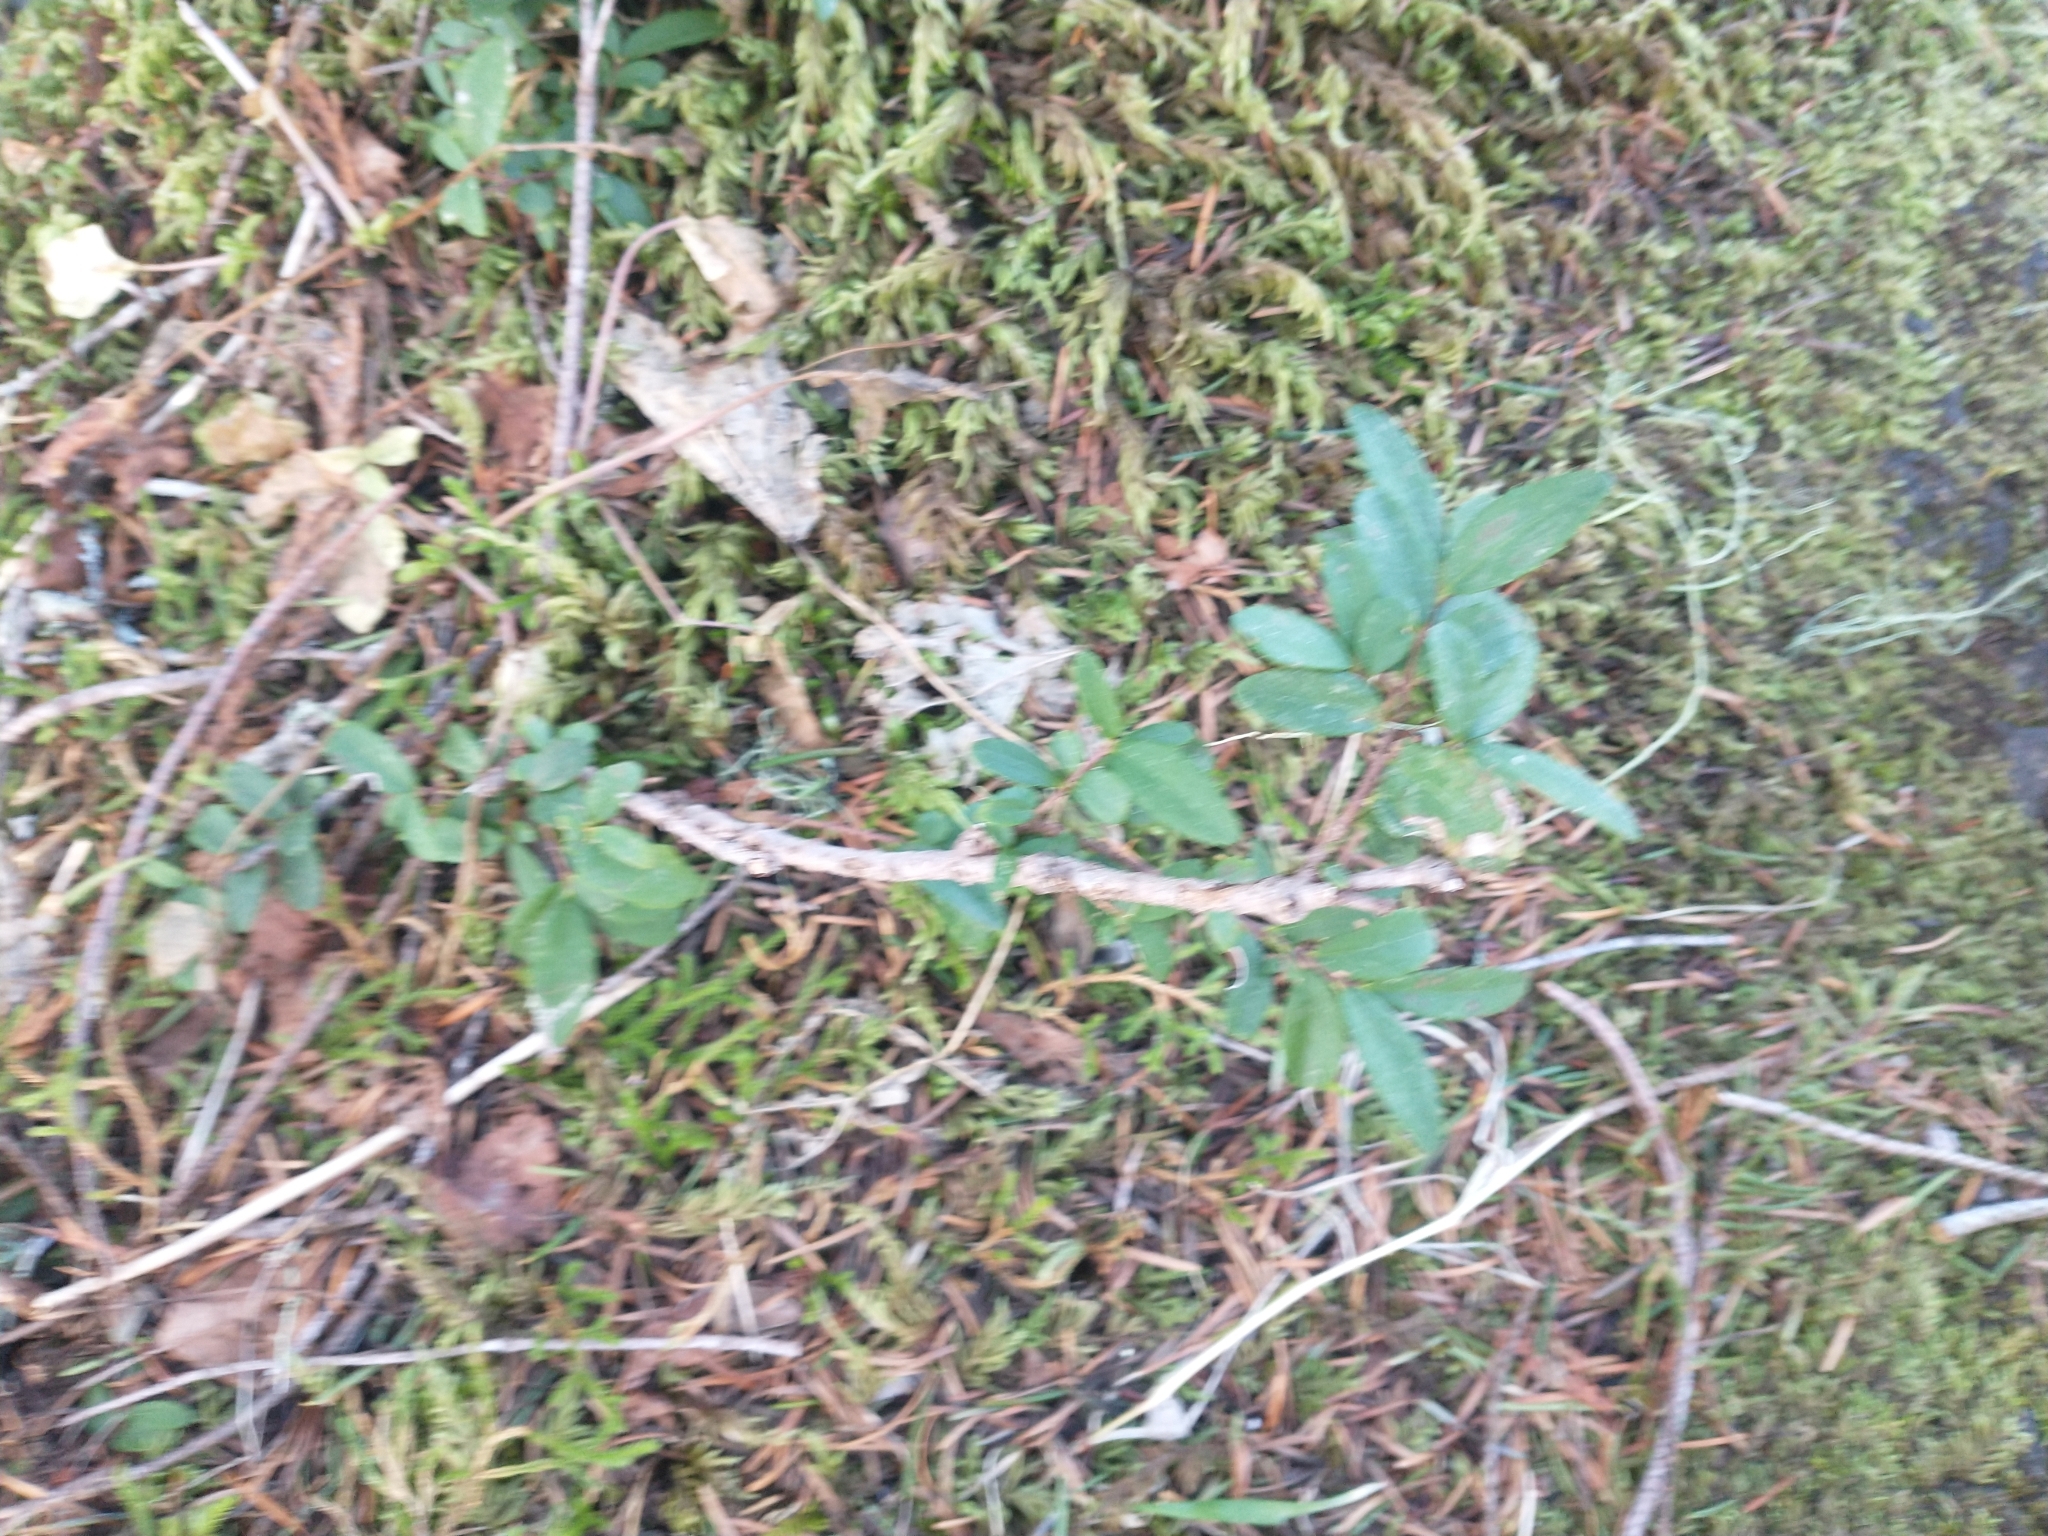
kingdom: Plantae
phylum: Tracheophyta
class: Magnoliopsida
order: Celastrales
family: Celastraceae
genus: Paxistima
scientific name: Paxistima myrsinites
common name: Mountain-lover
